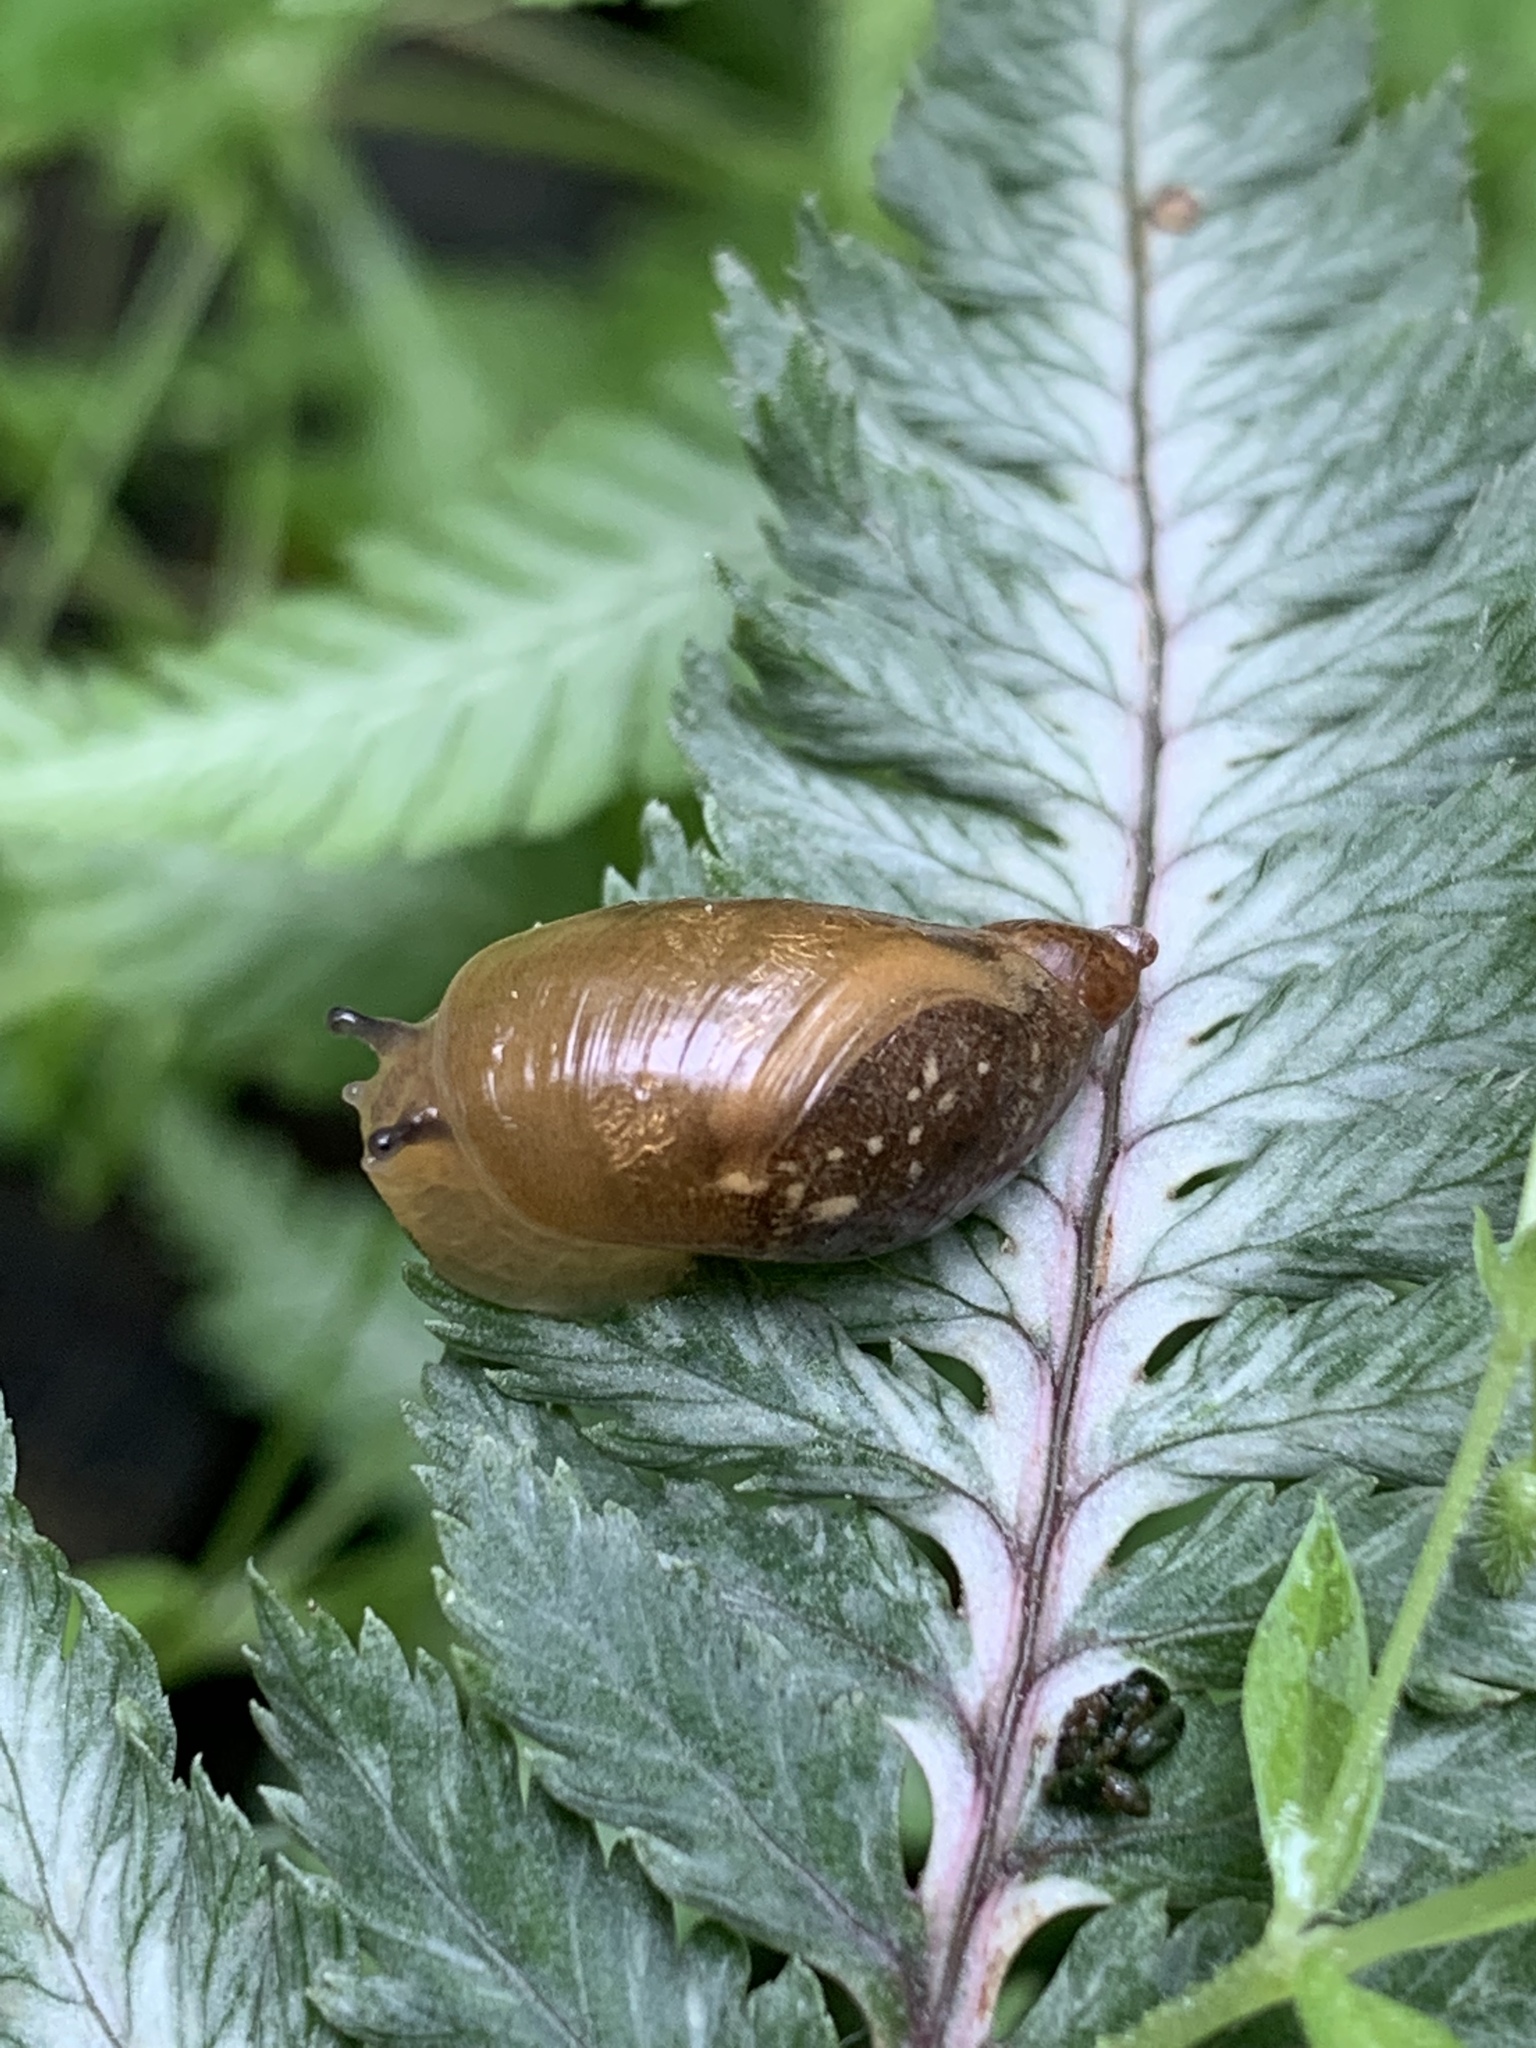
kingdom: Animalia
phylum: Mollusca
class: Gastropoda
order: Stylommatophora
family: Succineidae
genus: Novisuccinea
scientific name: Novisuccinea ovalis
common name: Oval ambersnail
